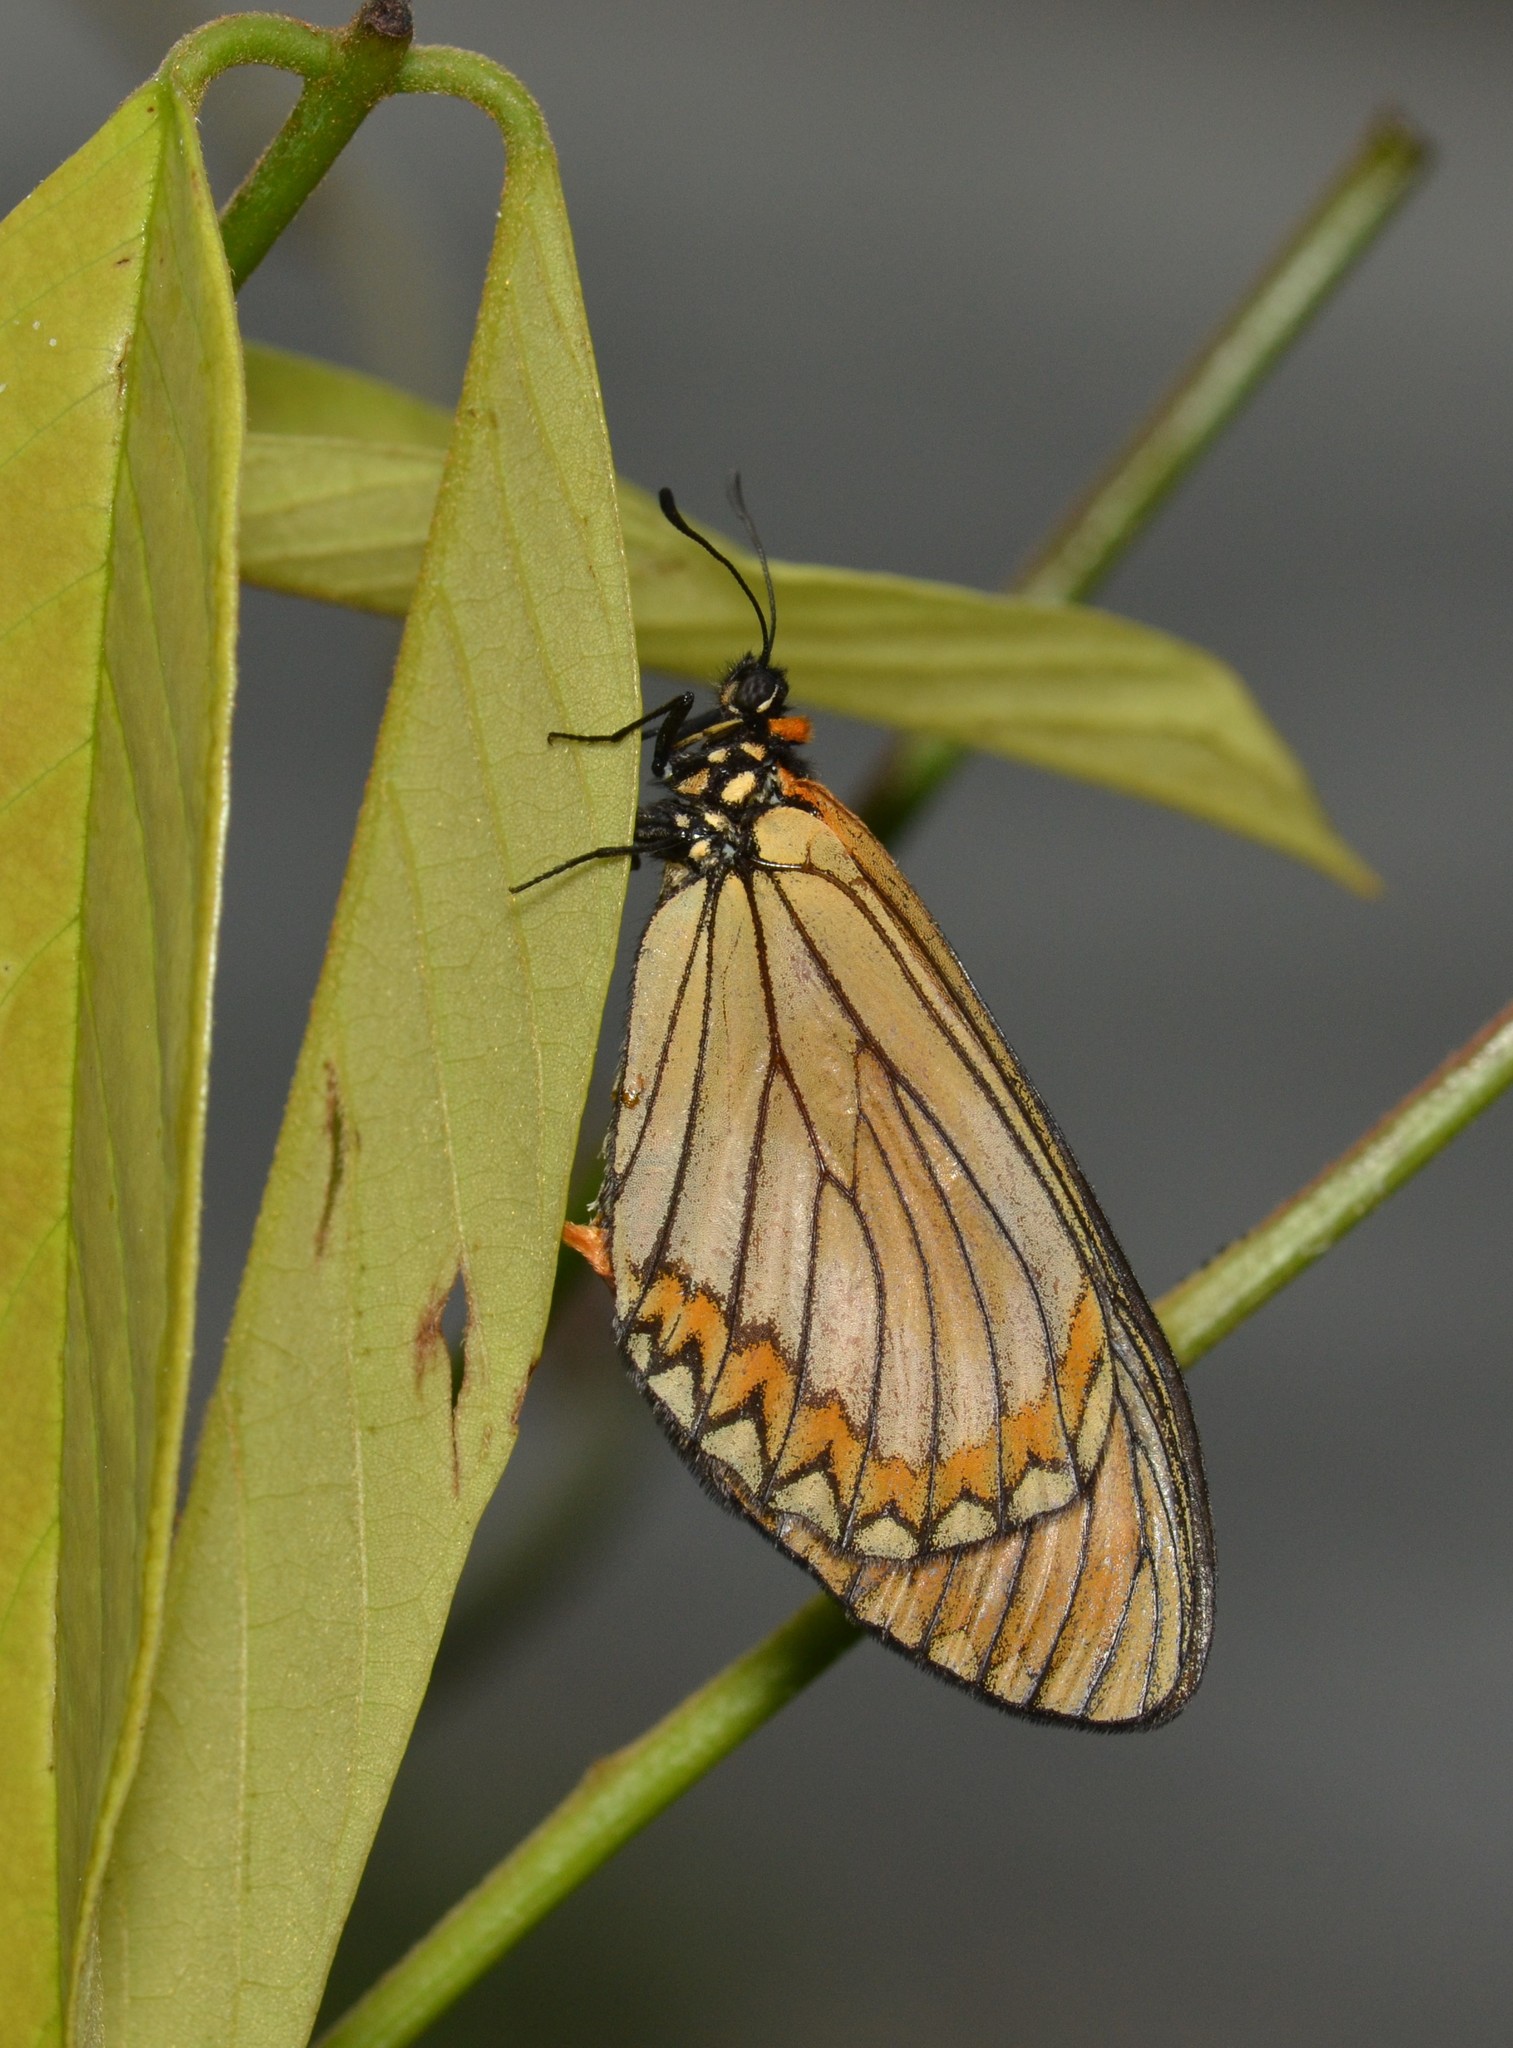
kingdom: Animalia
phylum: Arthropoda
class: Insecta
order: Lepidoptera
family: Nymphalidae
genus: Acraea
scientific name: Acraea Telchinia issoria
